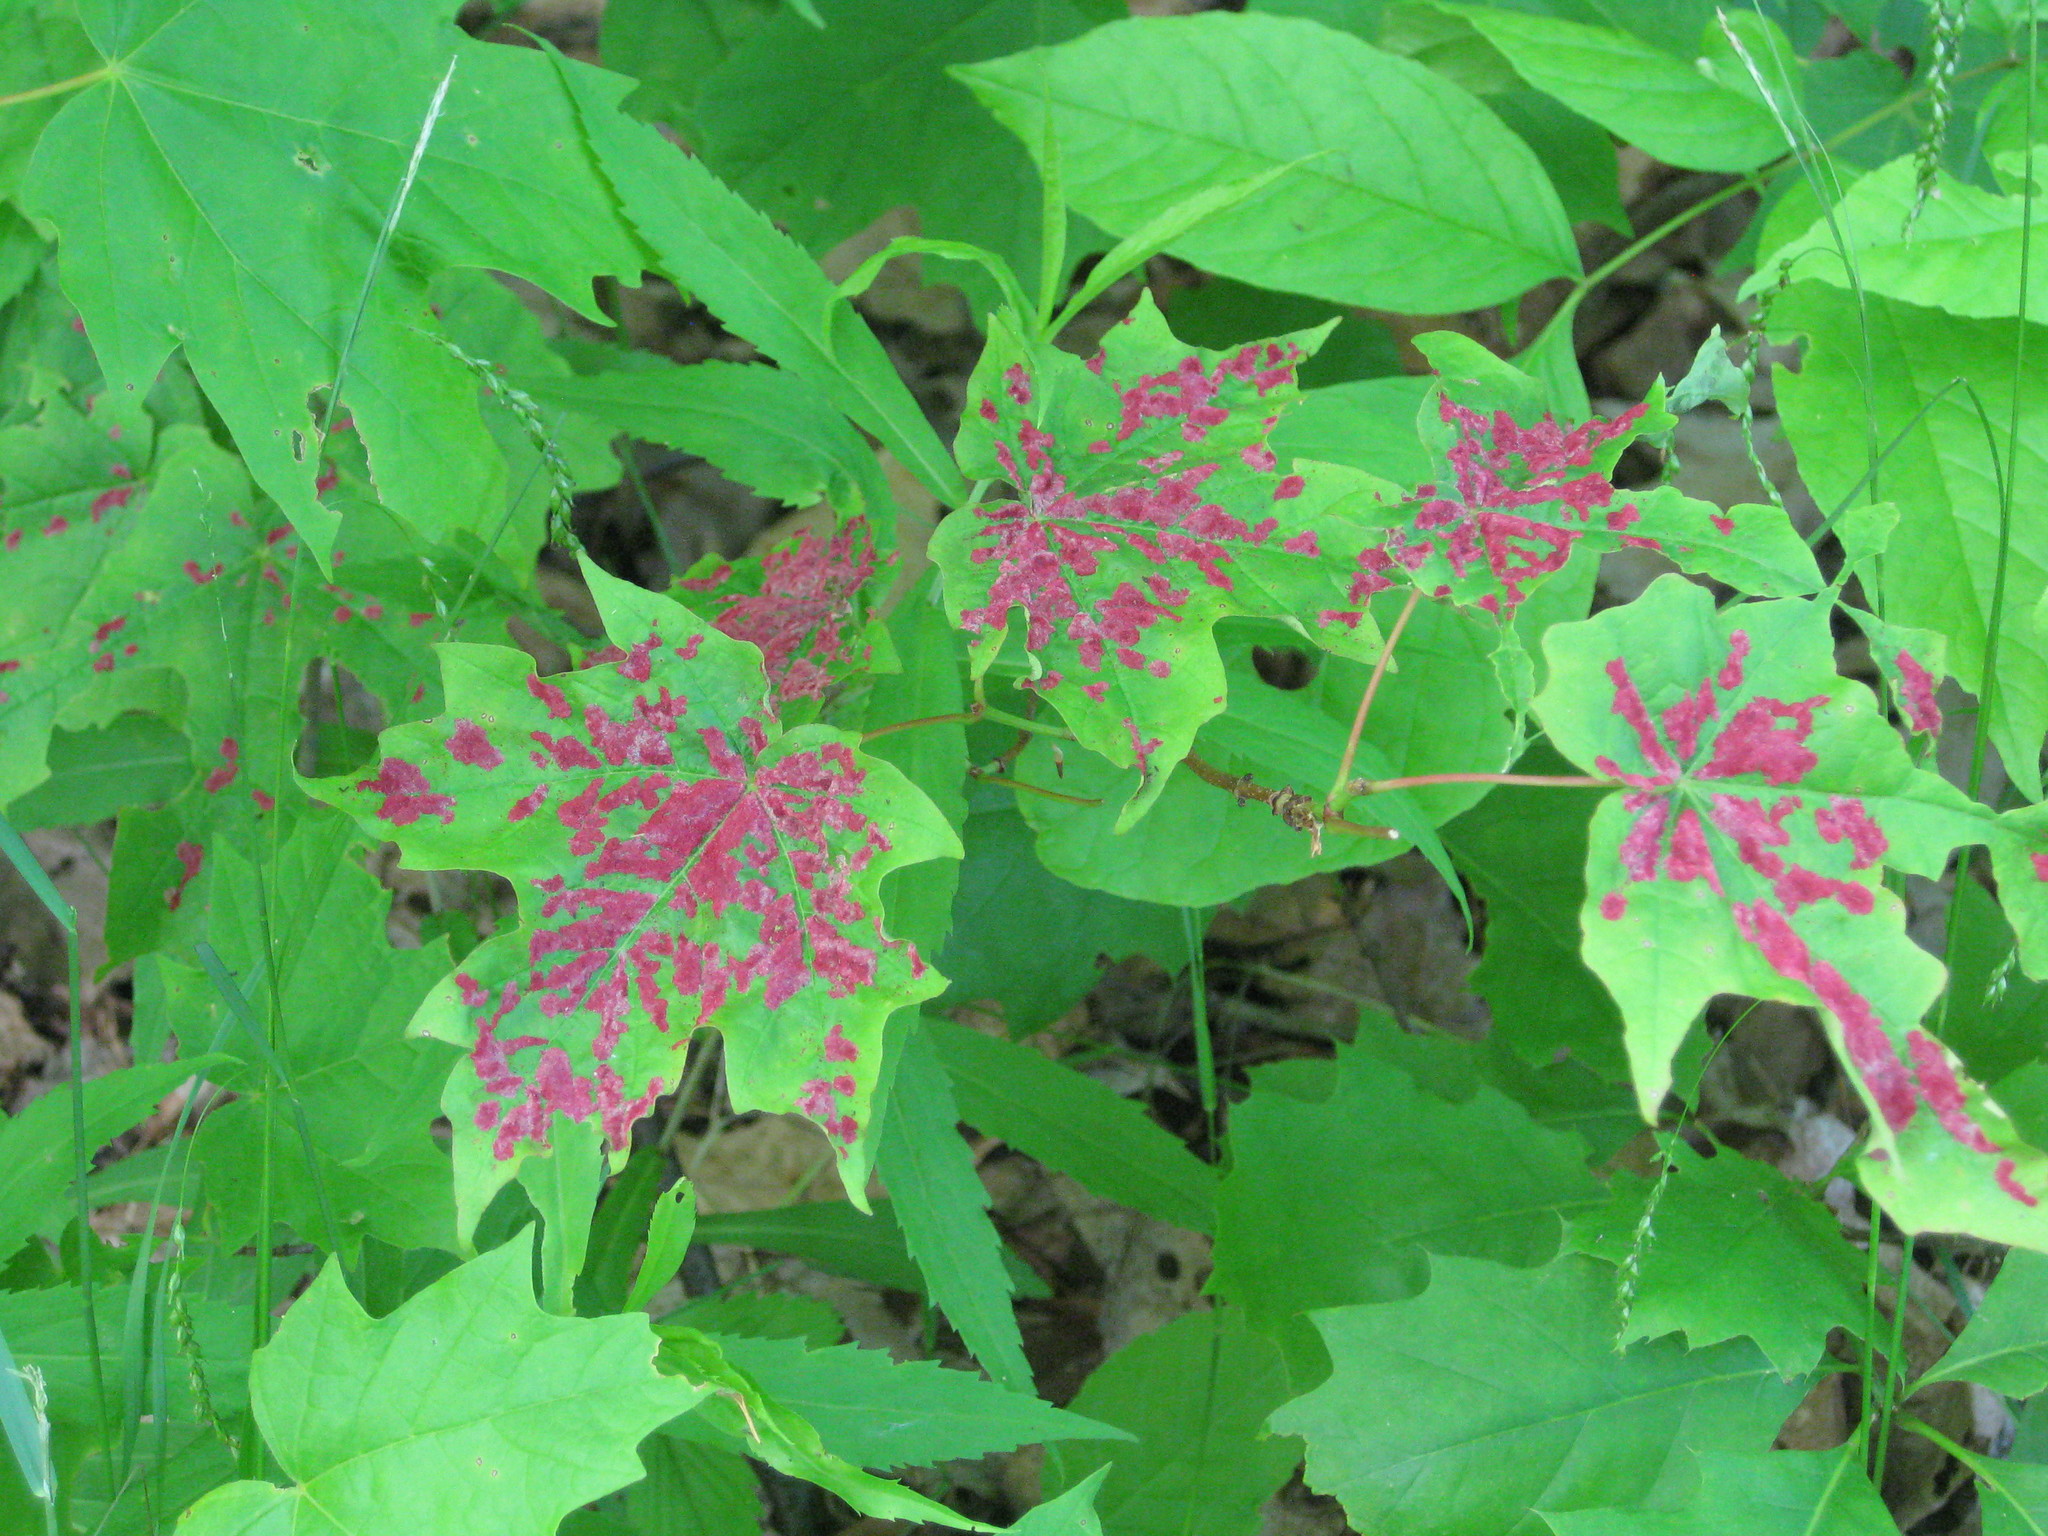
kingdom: Animalia
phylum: Arthropoda
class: Arachnida
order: Trombidiformes
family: Eriophyidae
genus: Aceria
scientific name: Aceria
